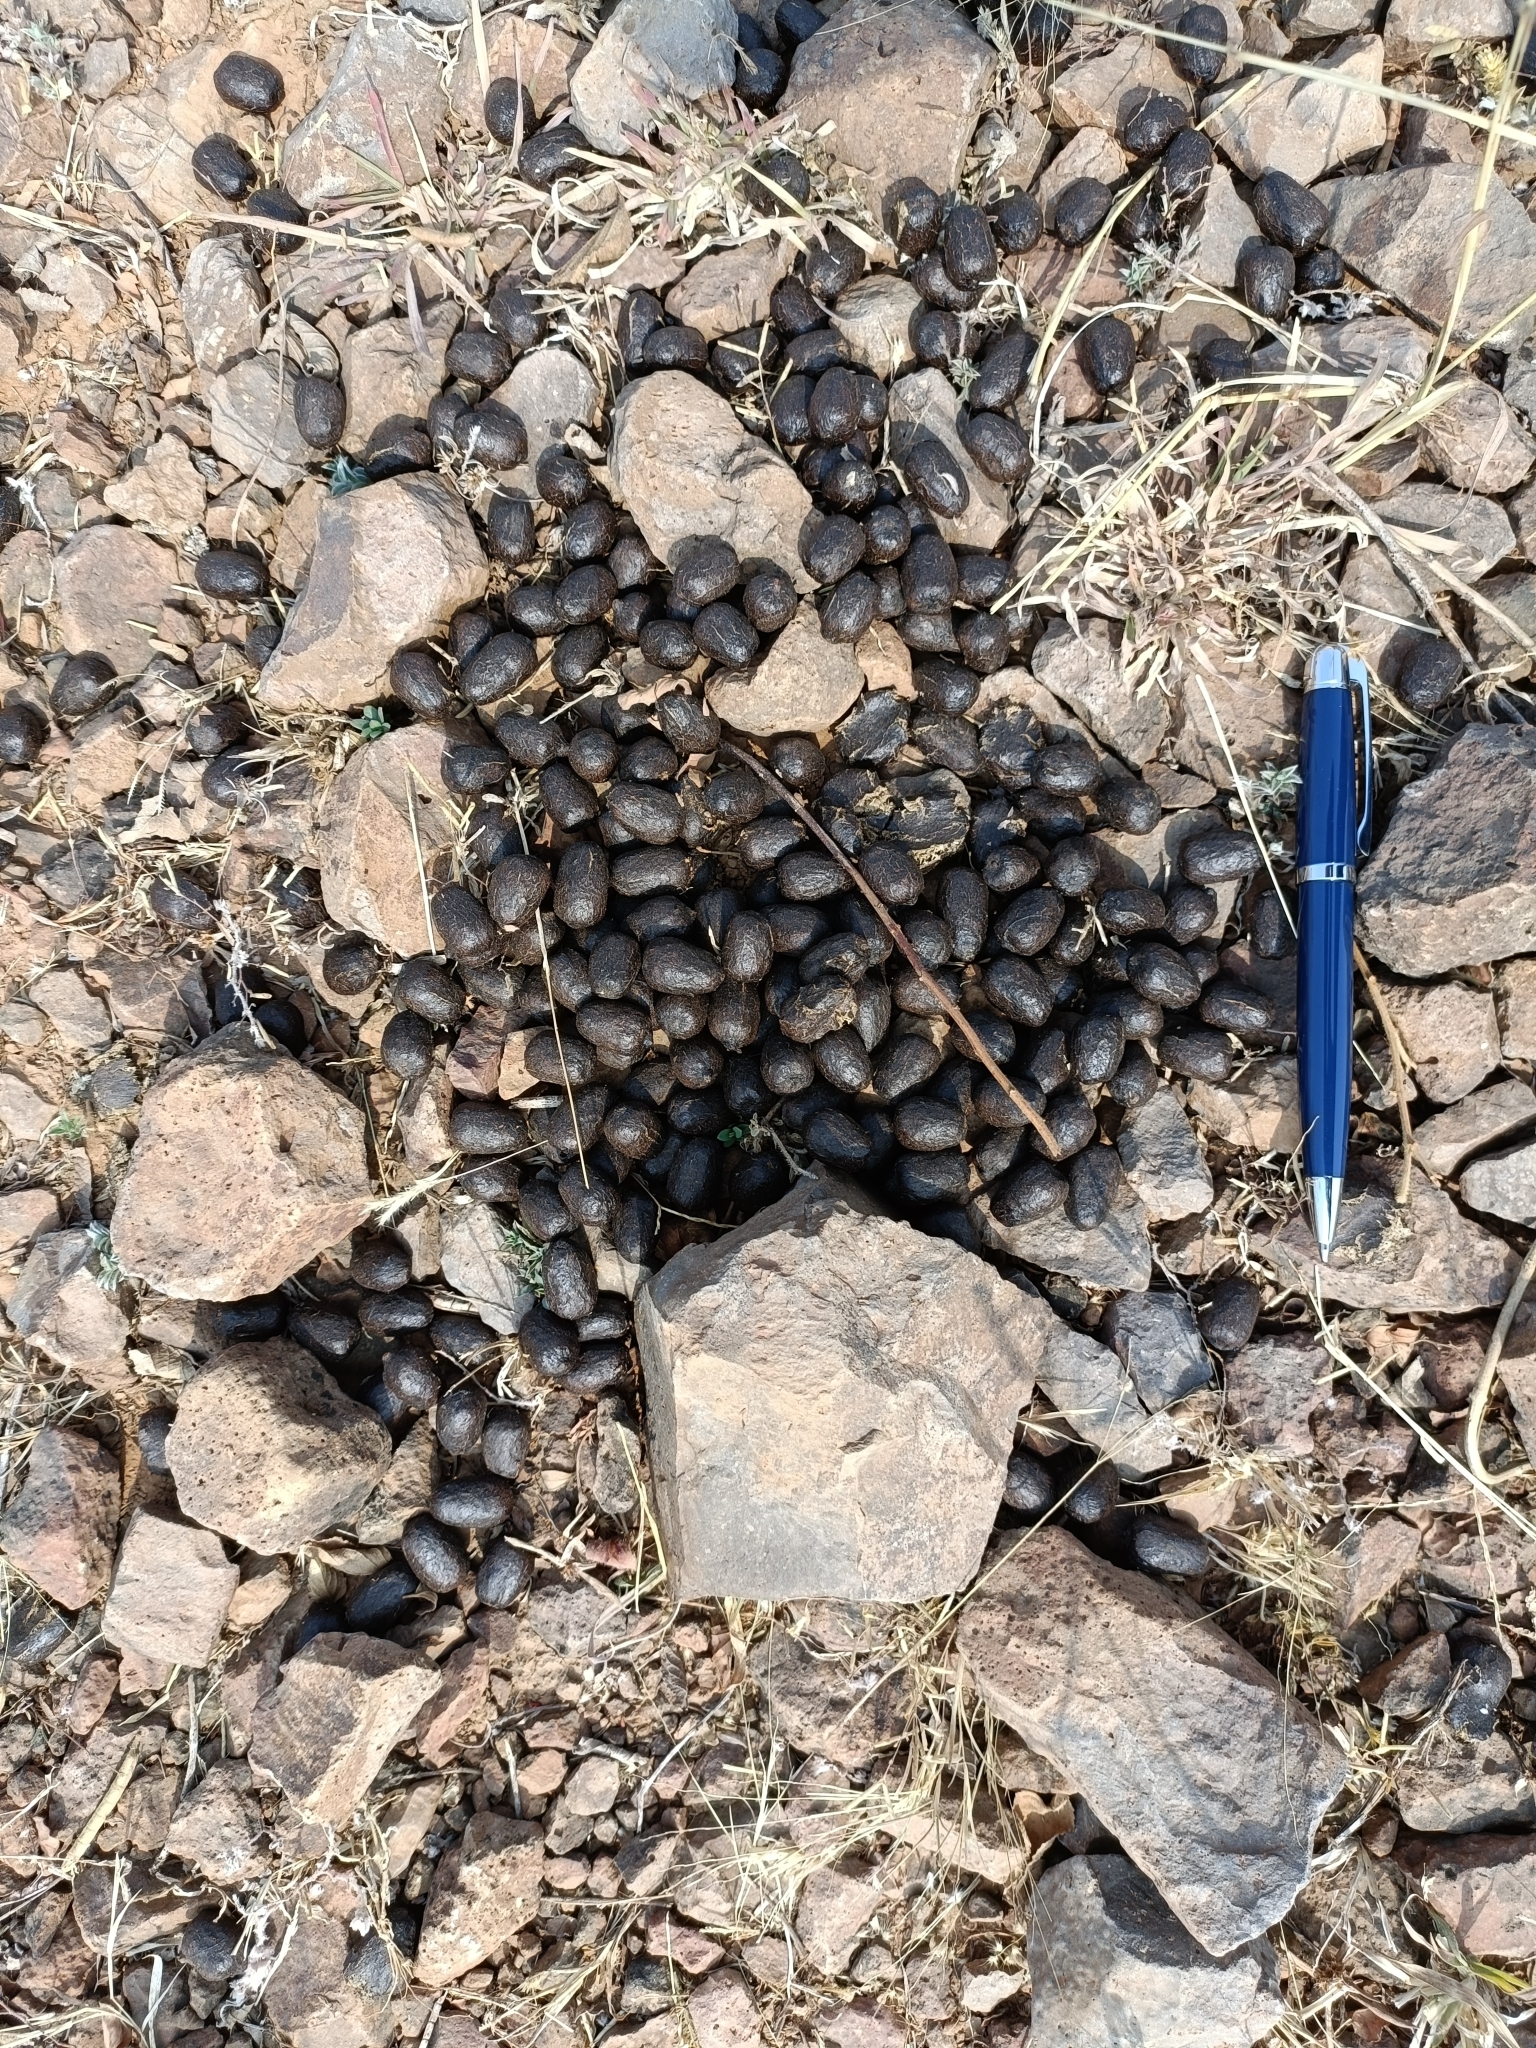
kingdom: Animalia
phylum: Chordata
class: Mammalia
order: Artiodactyla
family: Bovidae
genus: Boselaphus
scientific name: Boselaphus tragocamelus
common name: Nilgai
